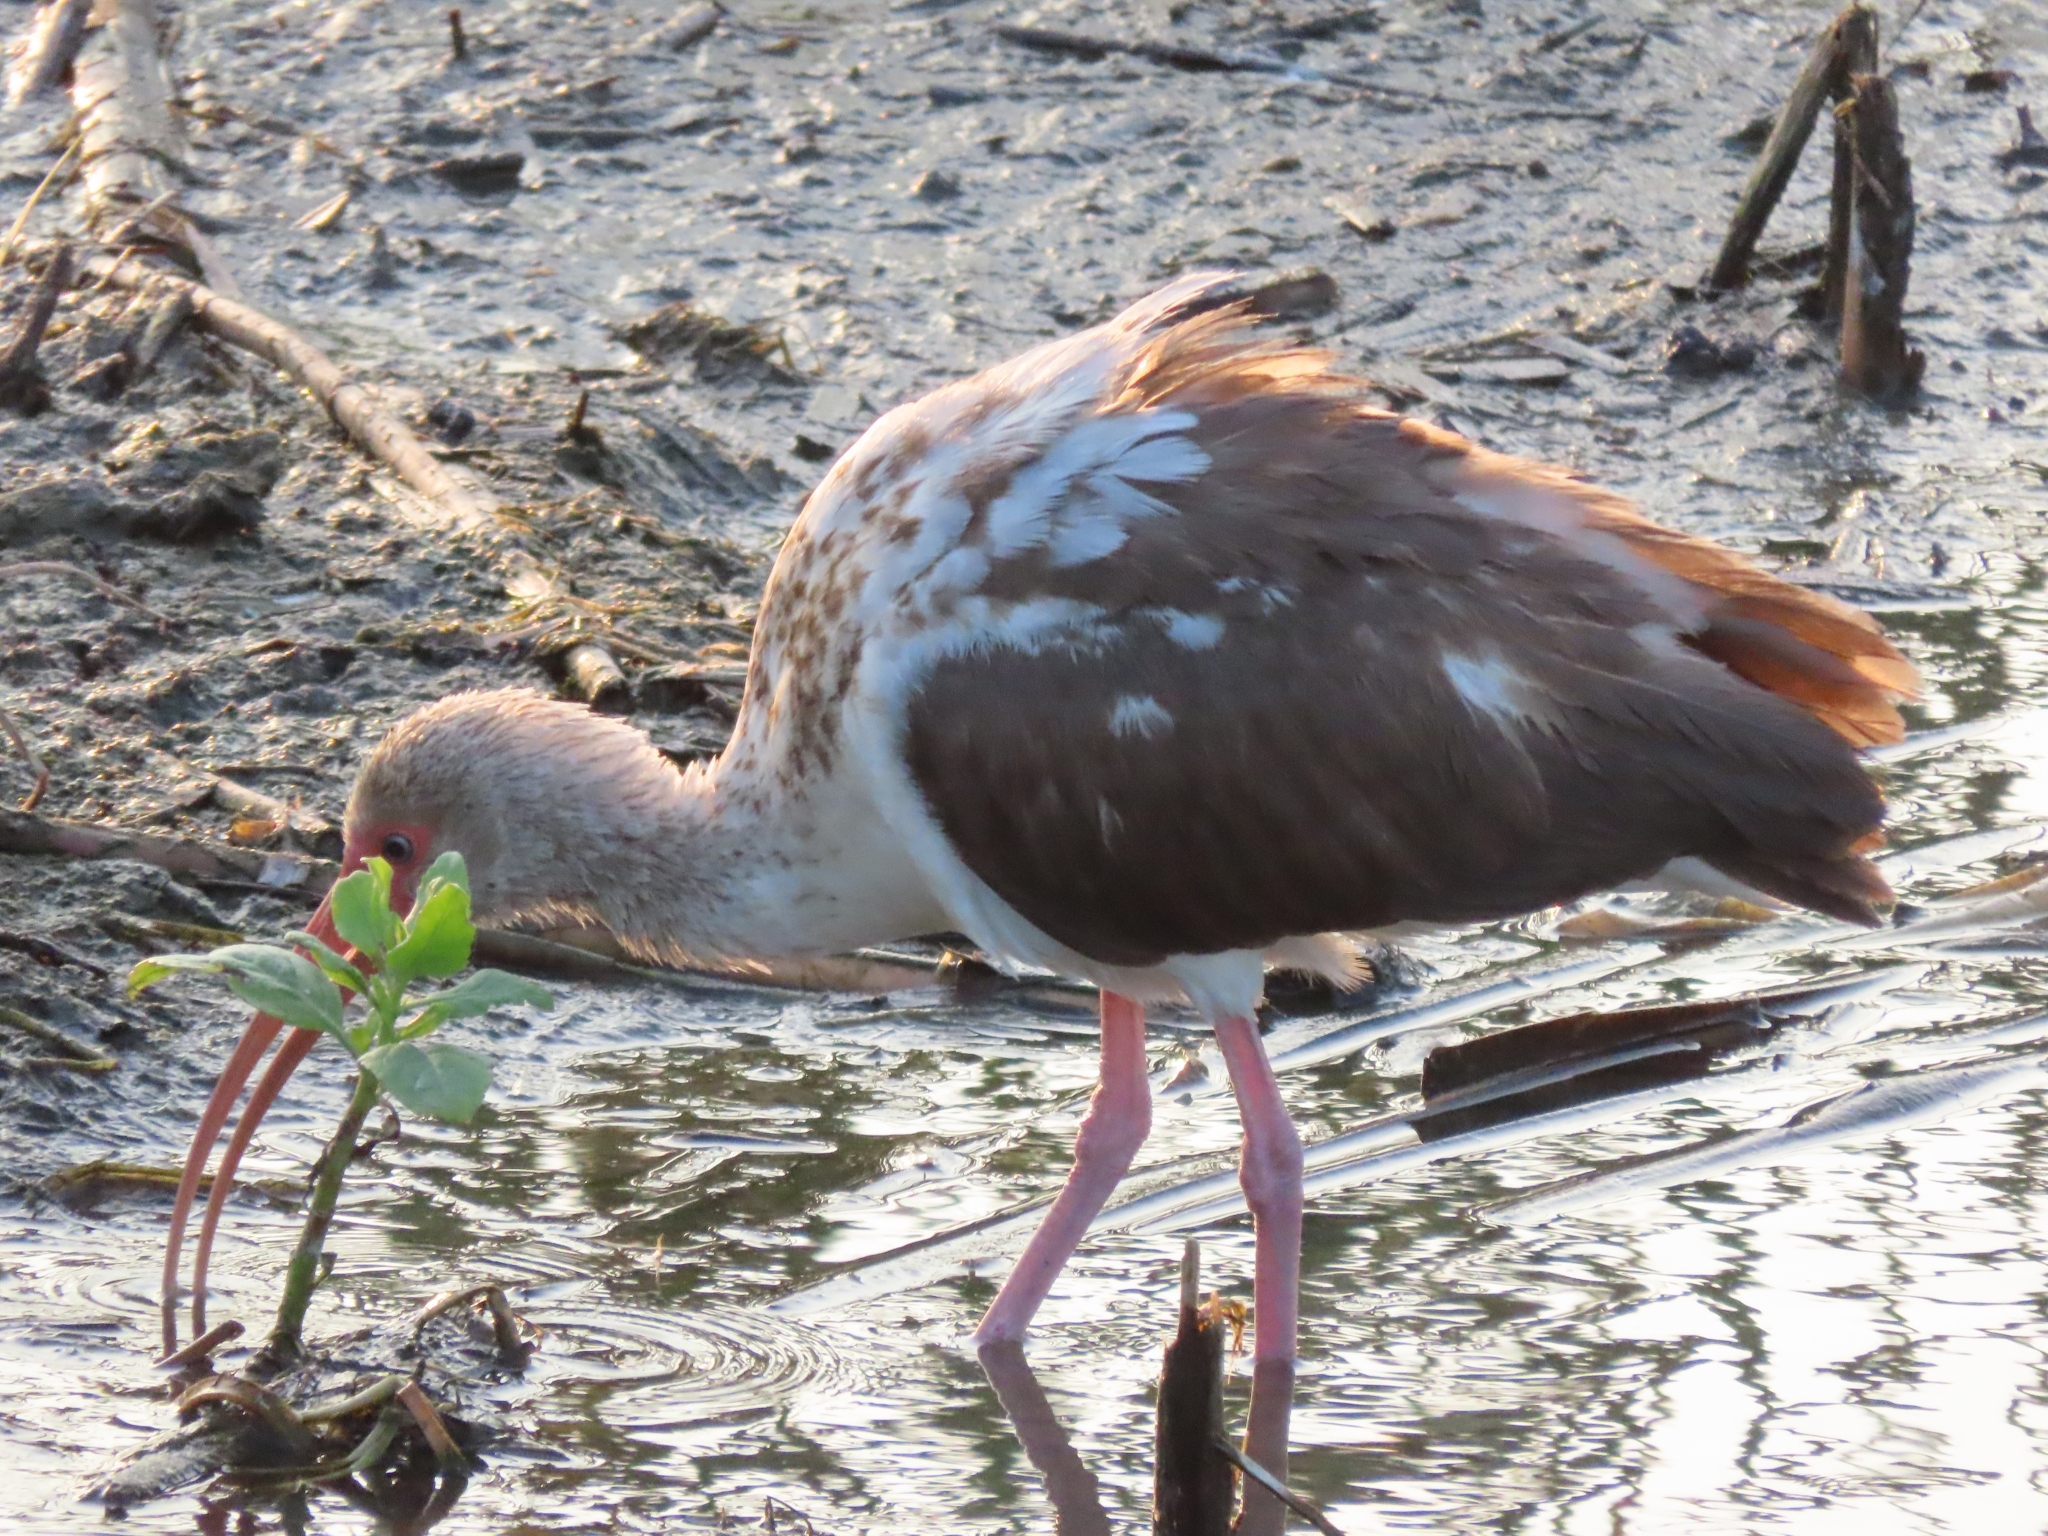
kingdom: Animalia
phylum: Chordata
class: Aves
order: Pelecaniformes
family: Threskiornithidae
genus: Eudocimus
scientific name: Eudocimus albus
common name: White ibis
